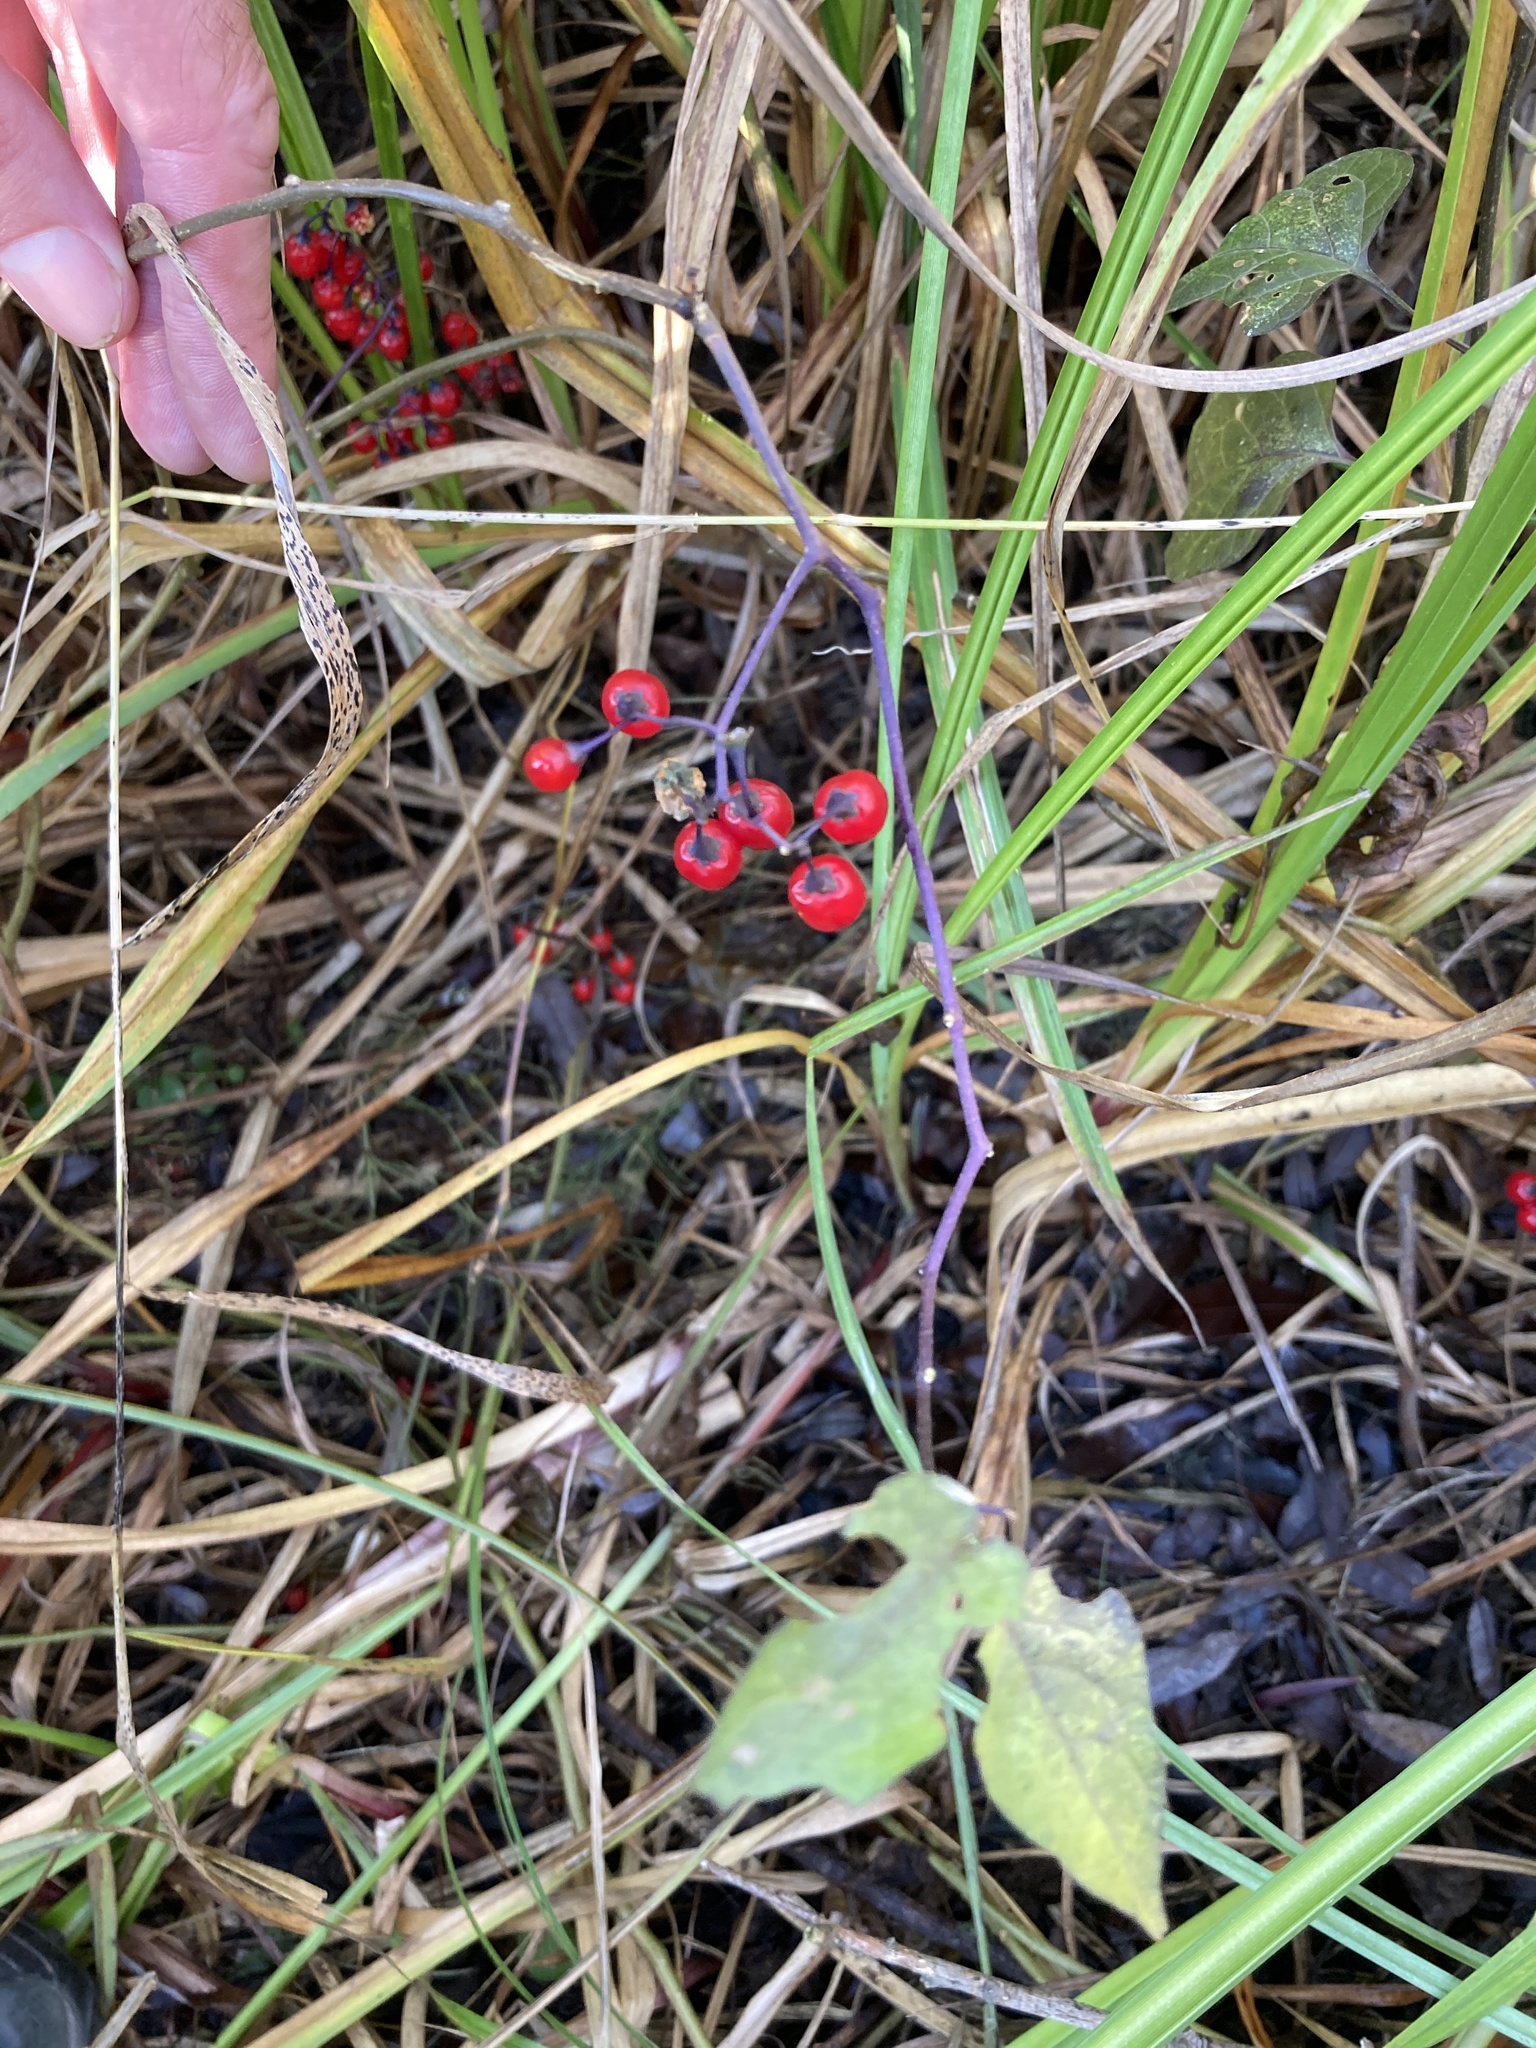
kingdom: Plantae
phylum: Tracheophyta
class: Magnoliopsida
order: Solanales
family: Solanaceae
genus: Solanum
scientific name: Solanum dulcamara
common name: Climbing nightshade
